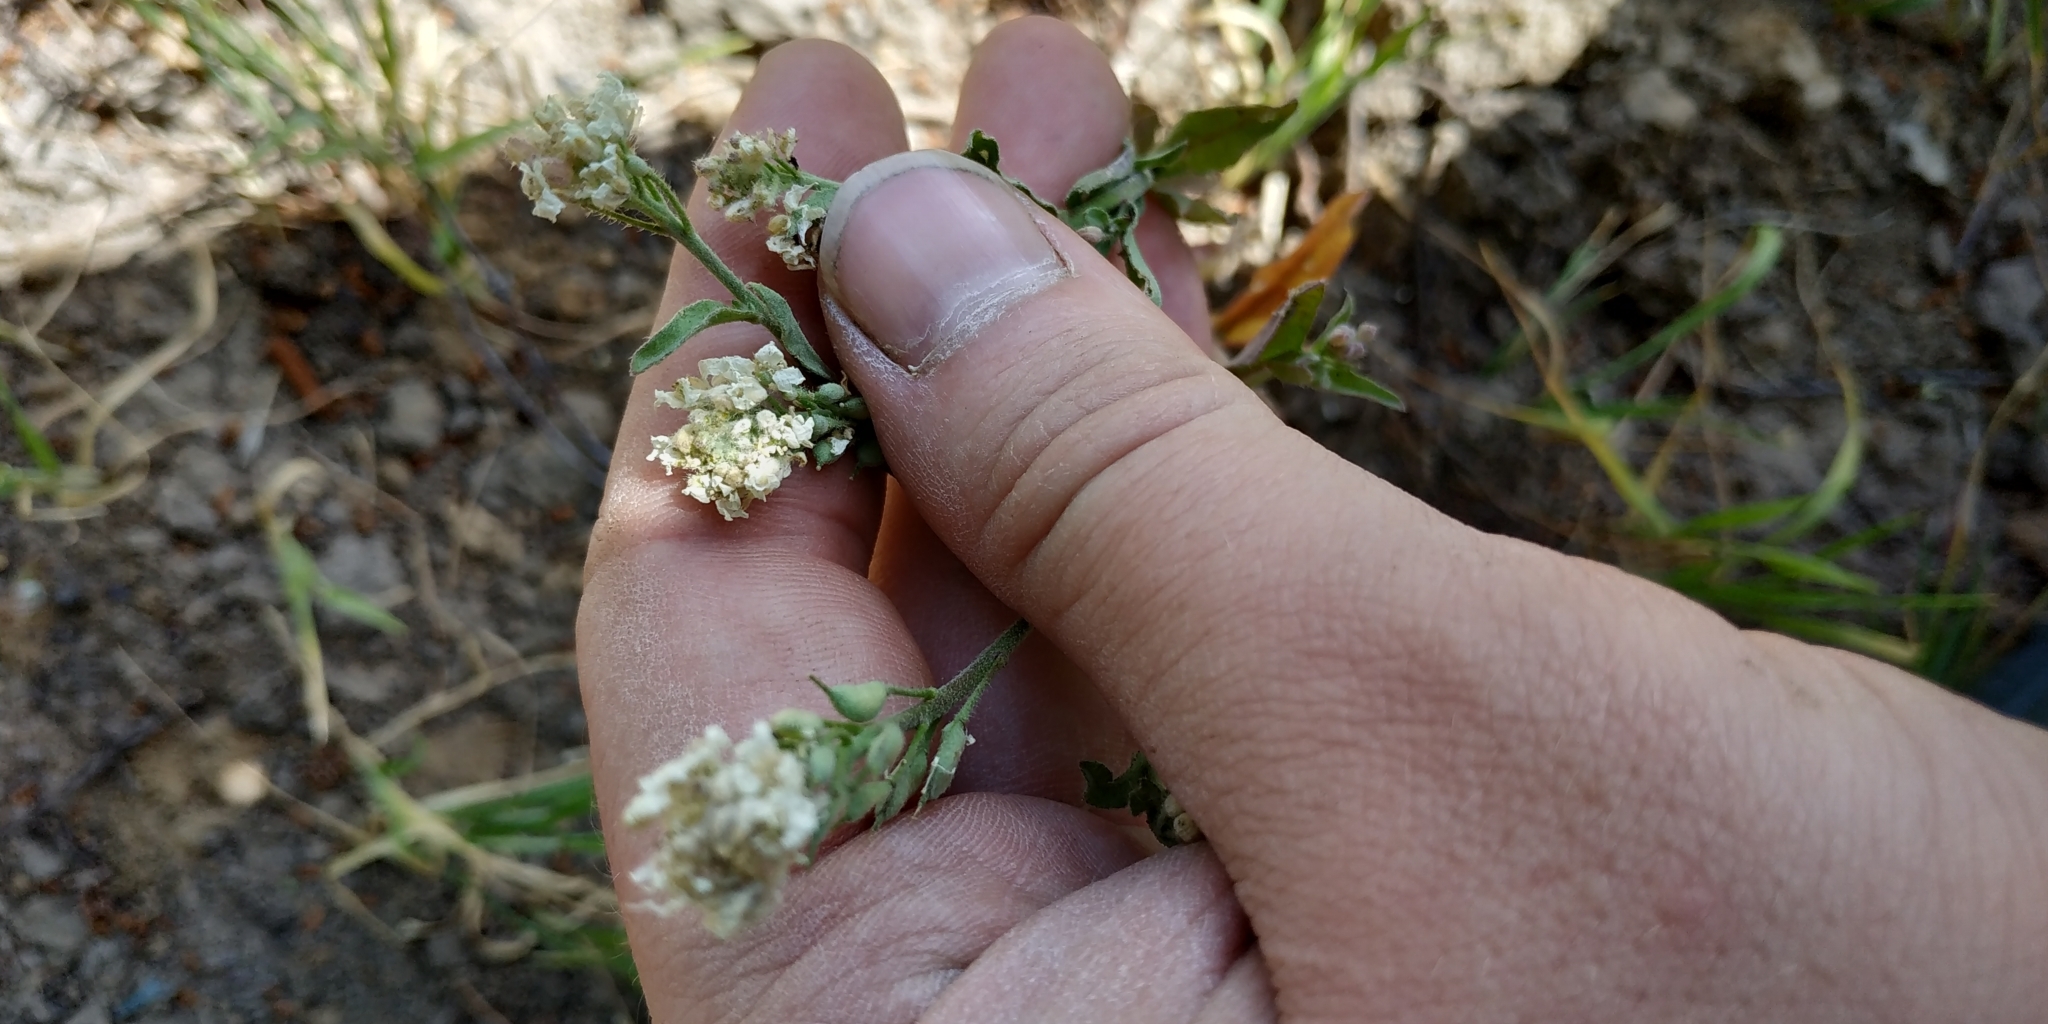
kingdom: Plantae
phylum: Tracheophyta
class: Magnoliopsida
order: Brassicales
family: Brassicaceae
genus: Berteroa
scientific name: Berteroa incana
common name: Hoary alison
